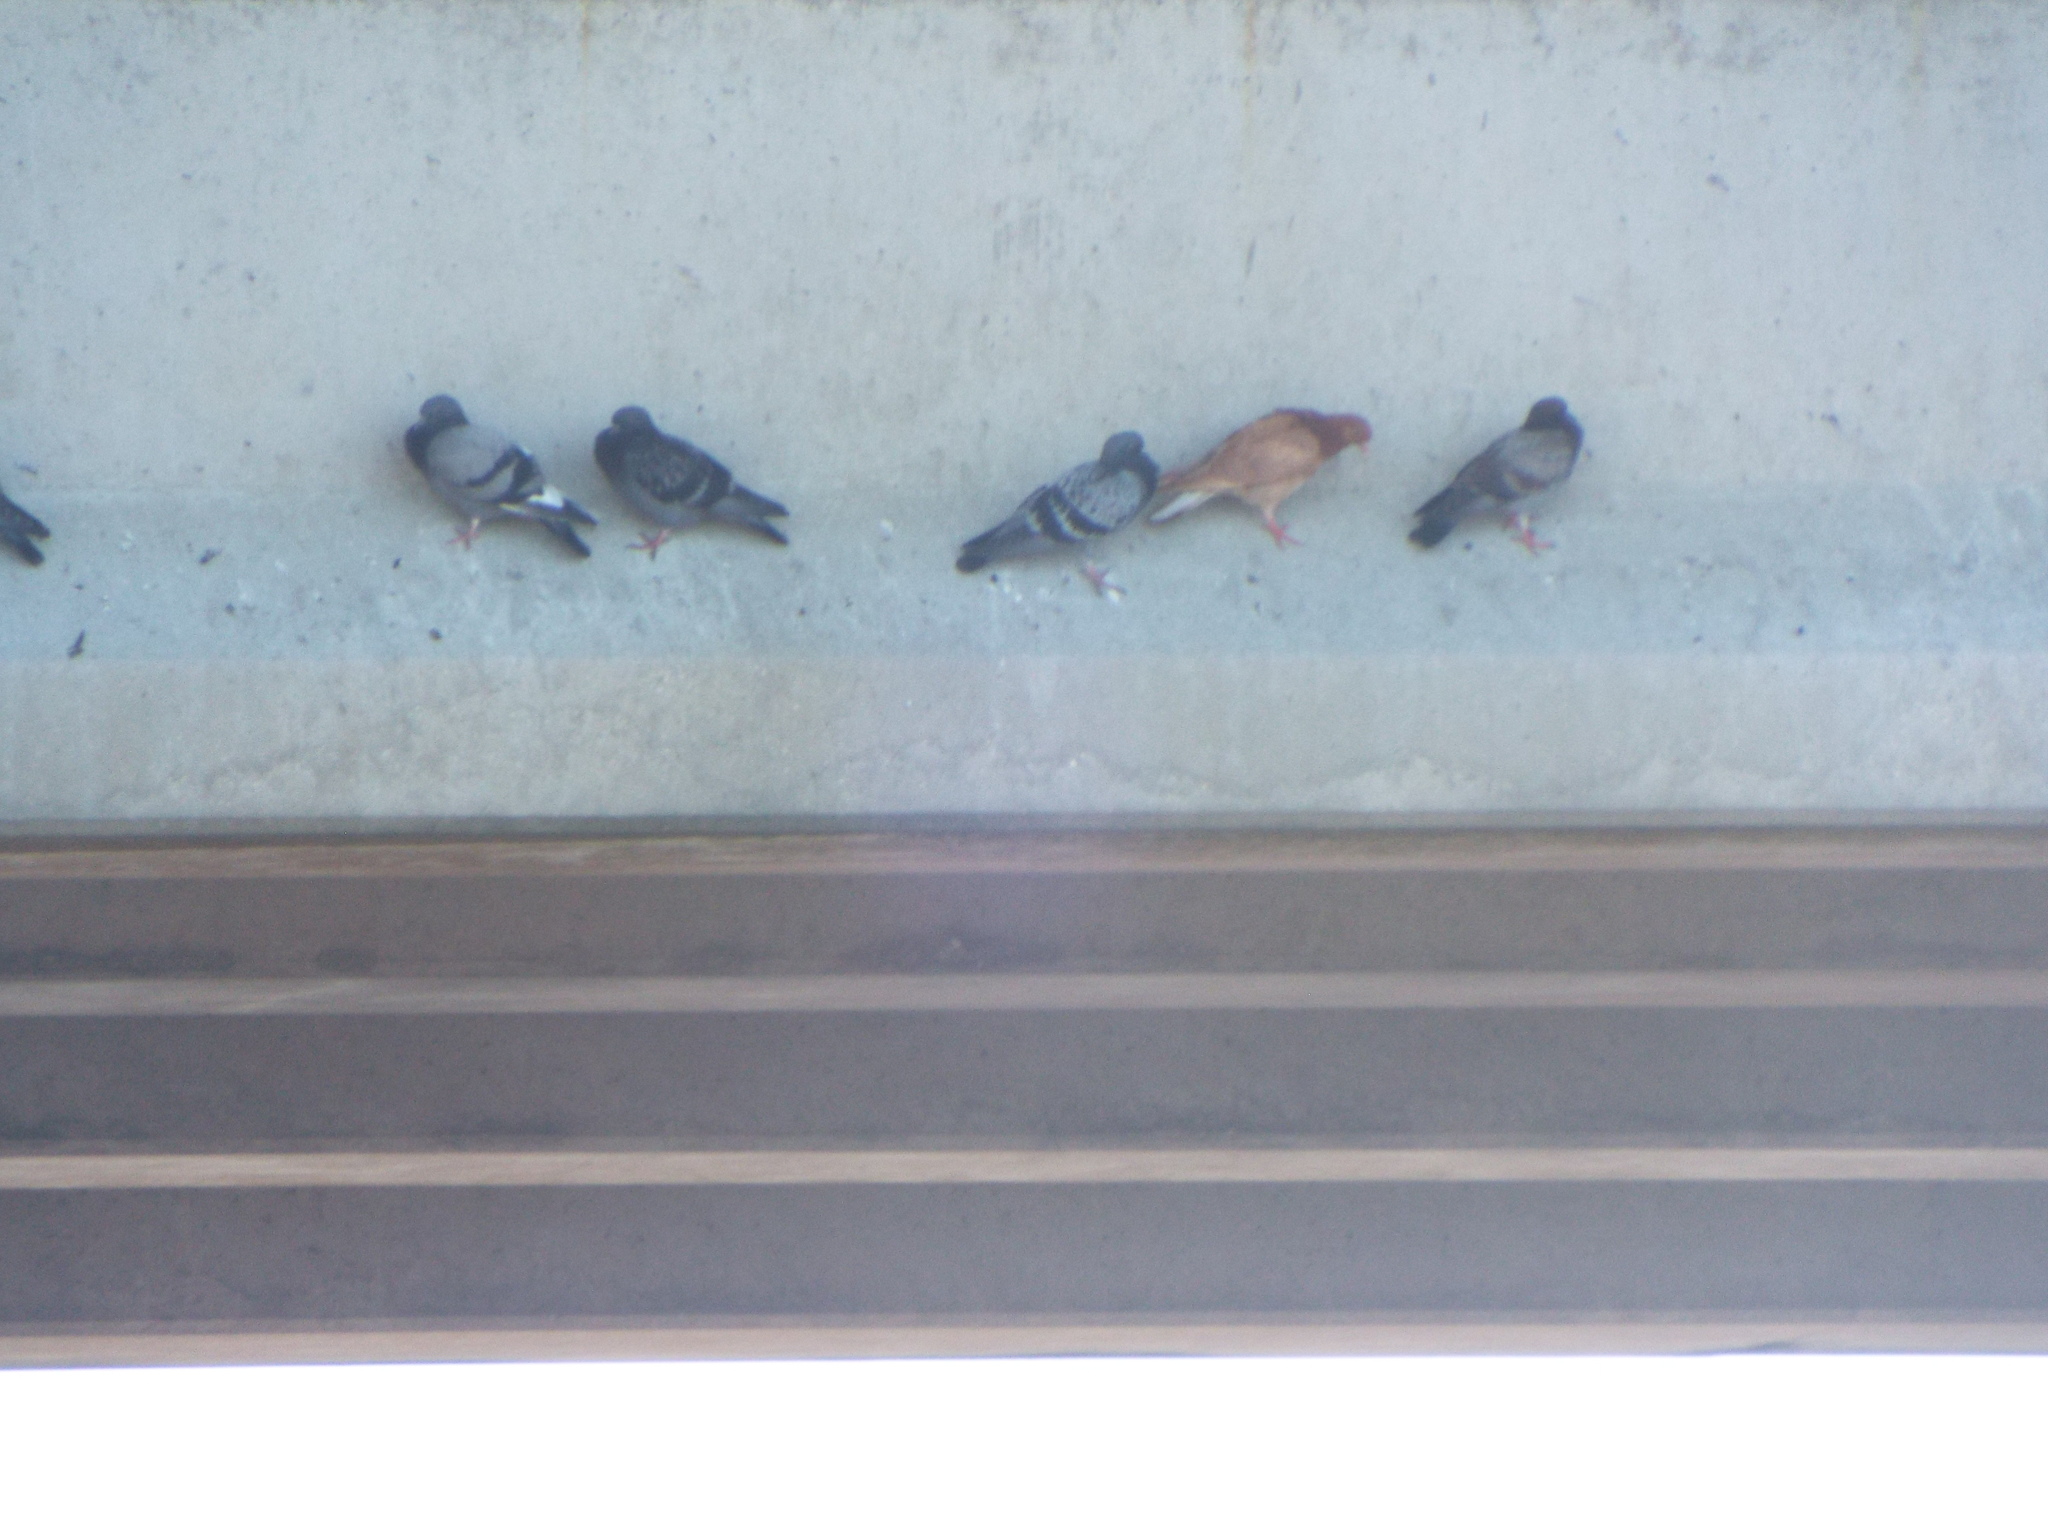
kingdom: Animalia
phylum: Chordata
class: Aves
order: Columbiformes
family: Columbidae
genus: Columba
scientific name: Columba livia
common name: Rock pigeon
